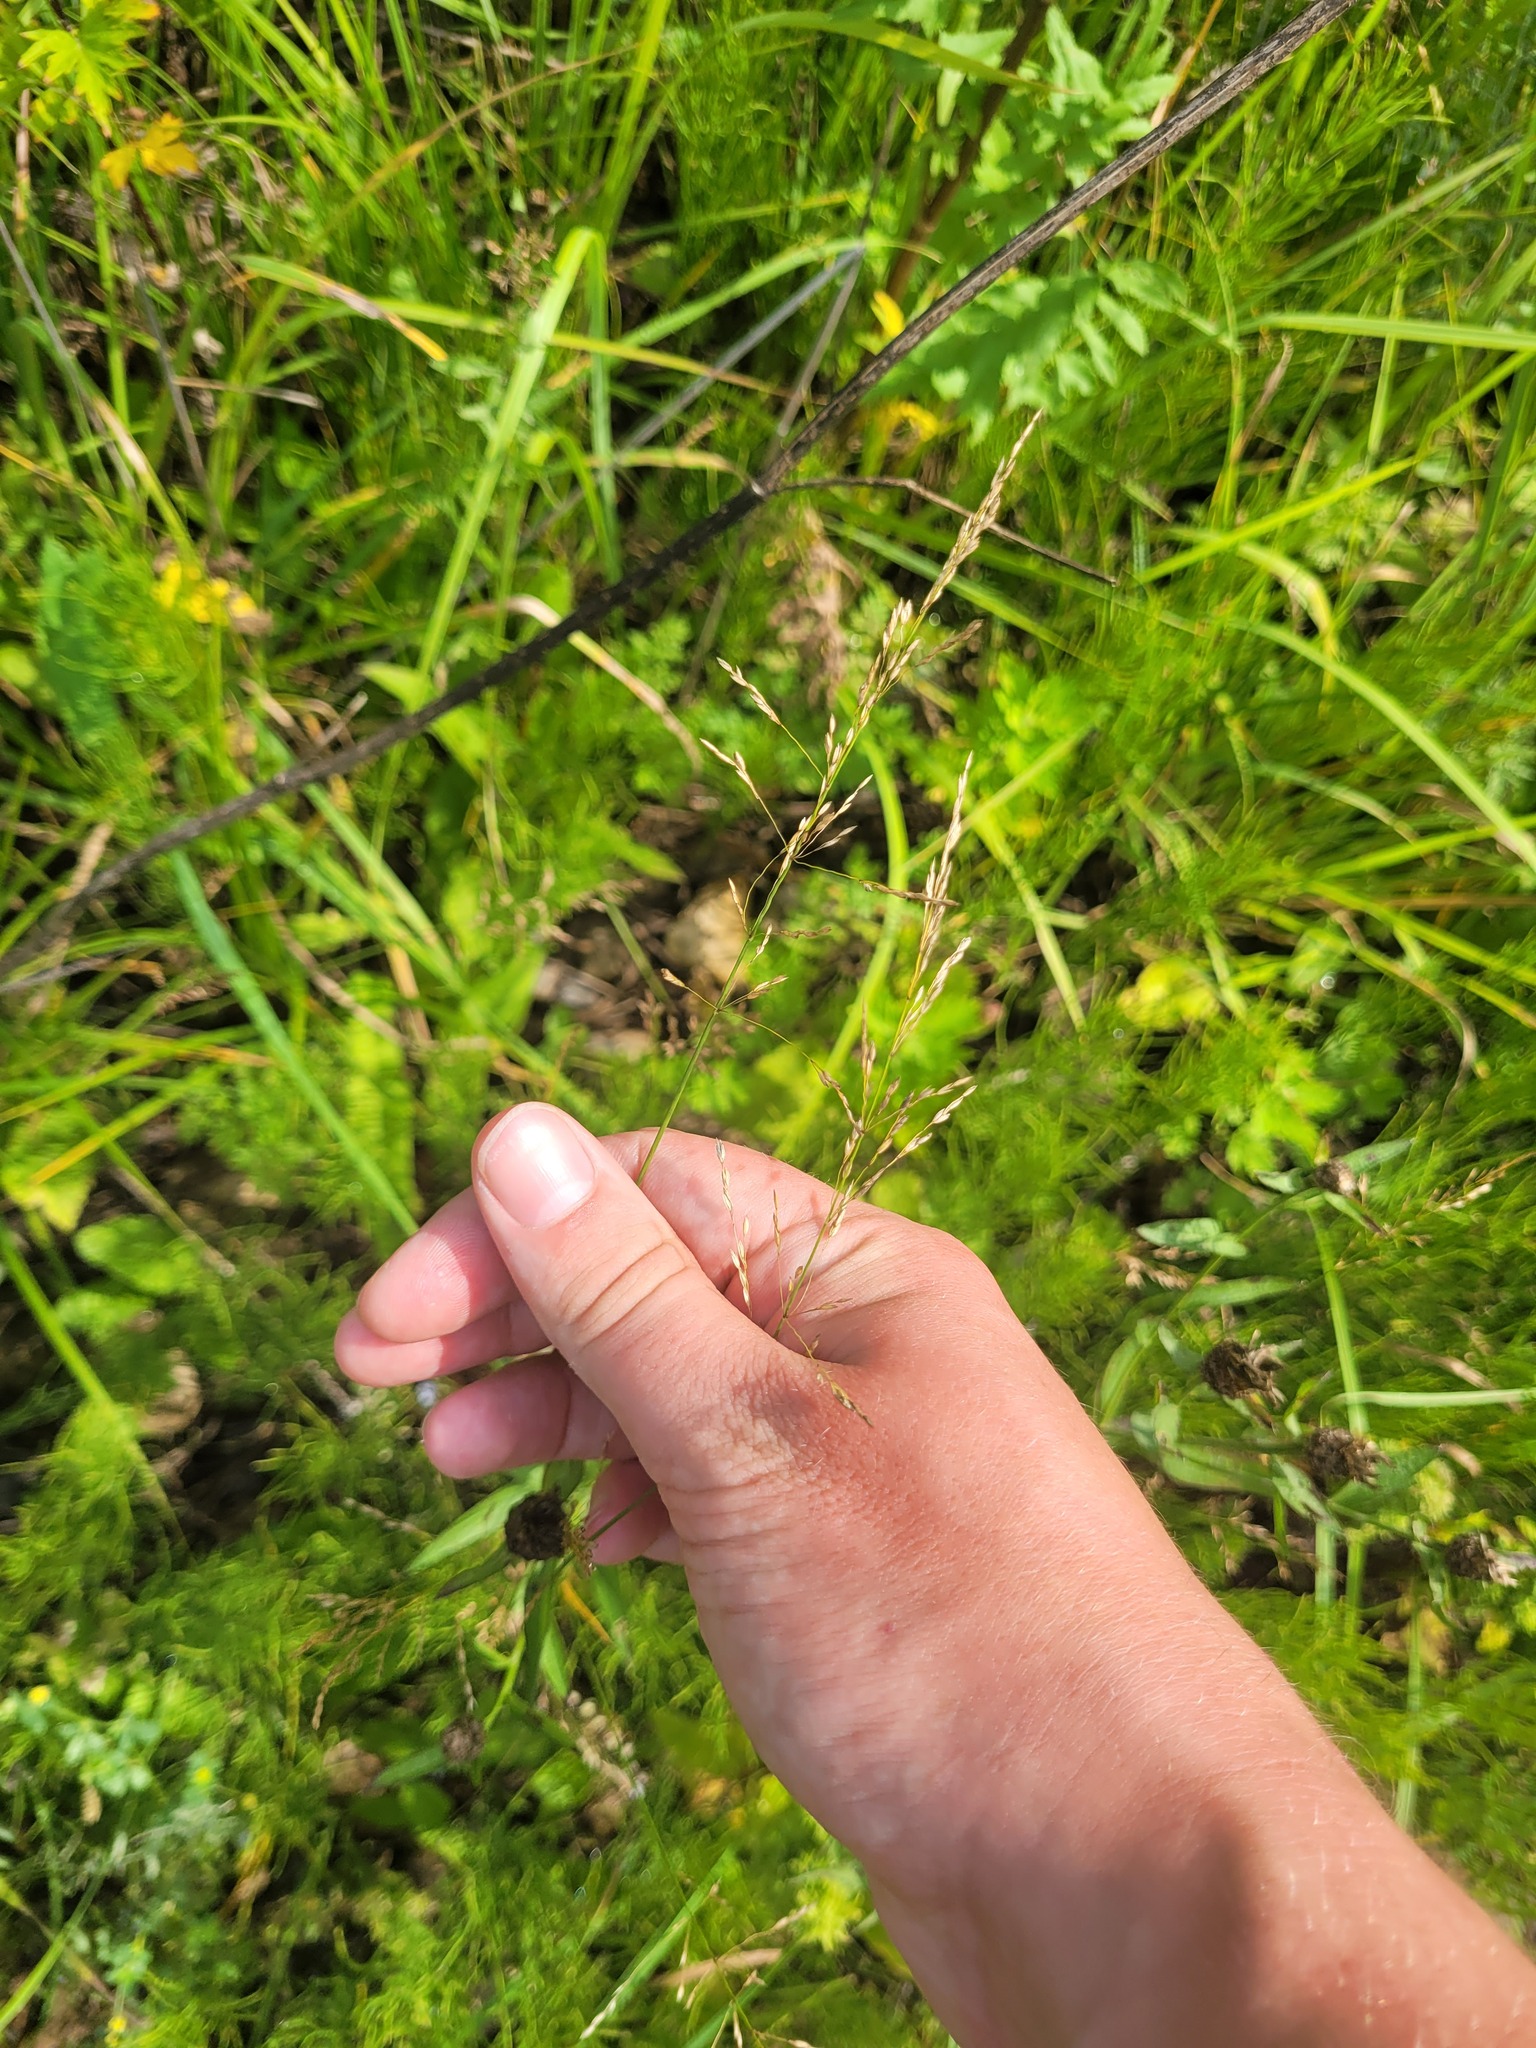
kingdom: Plantae
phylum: Tracheophyta
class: Liliopsida
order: Poales
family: Poaceae
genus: Poa
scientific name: Poa palustris
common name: Swamp meadow-grass
